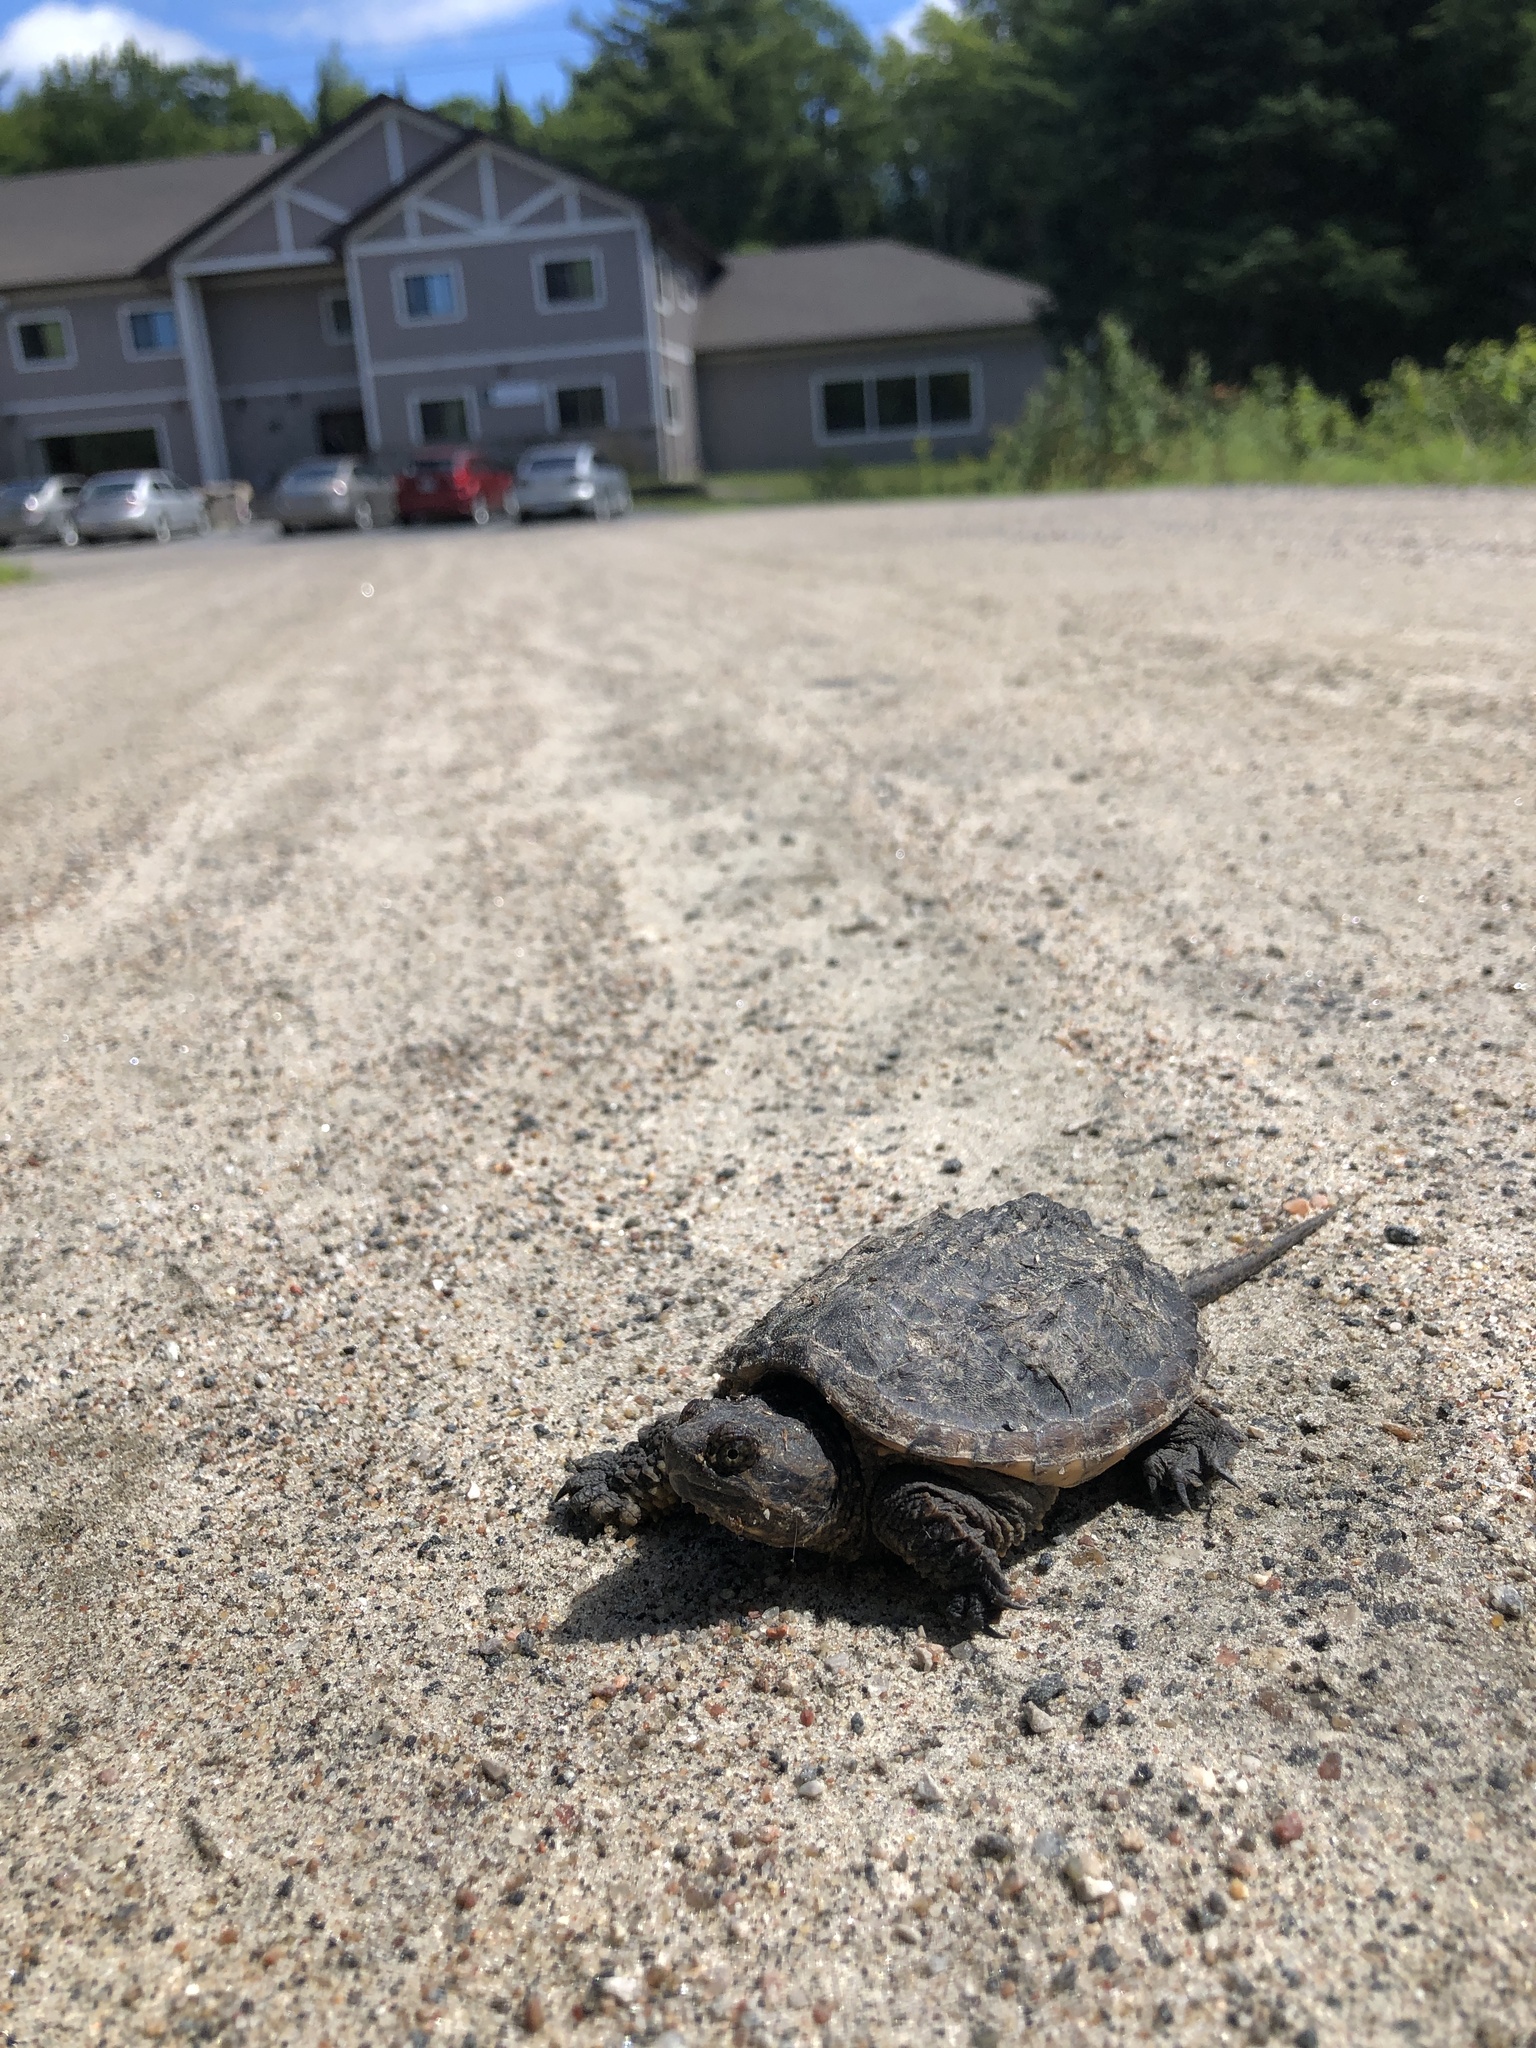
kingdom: Animalia
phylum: Chordata
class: Testudines
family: Chelydridae
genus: Chelydra
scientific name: Chelydra serpentina
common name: Common snapping turtle
